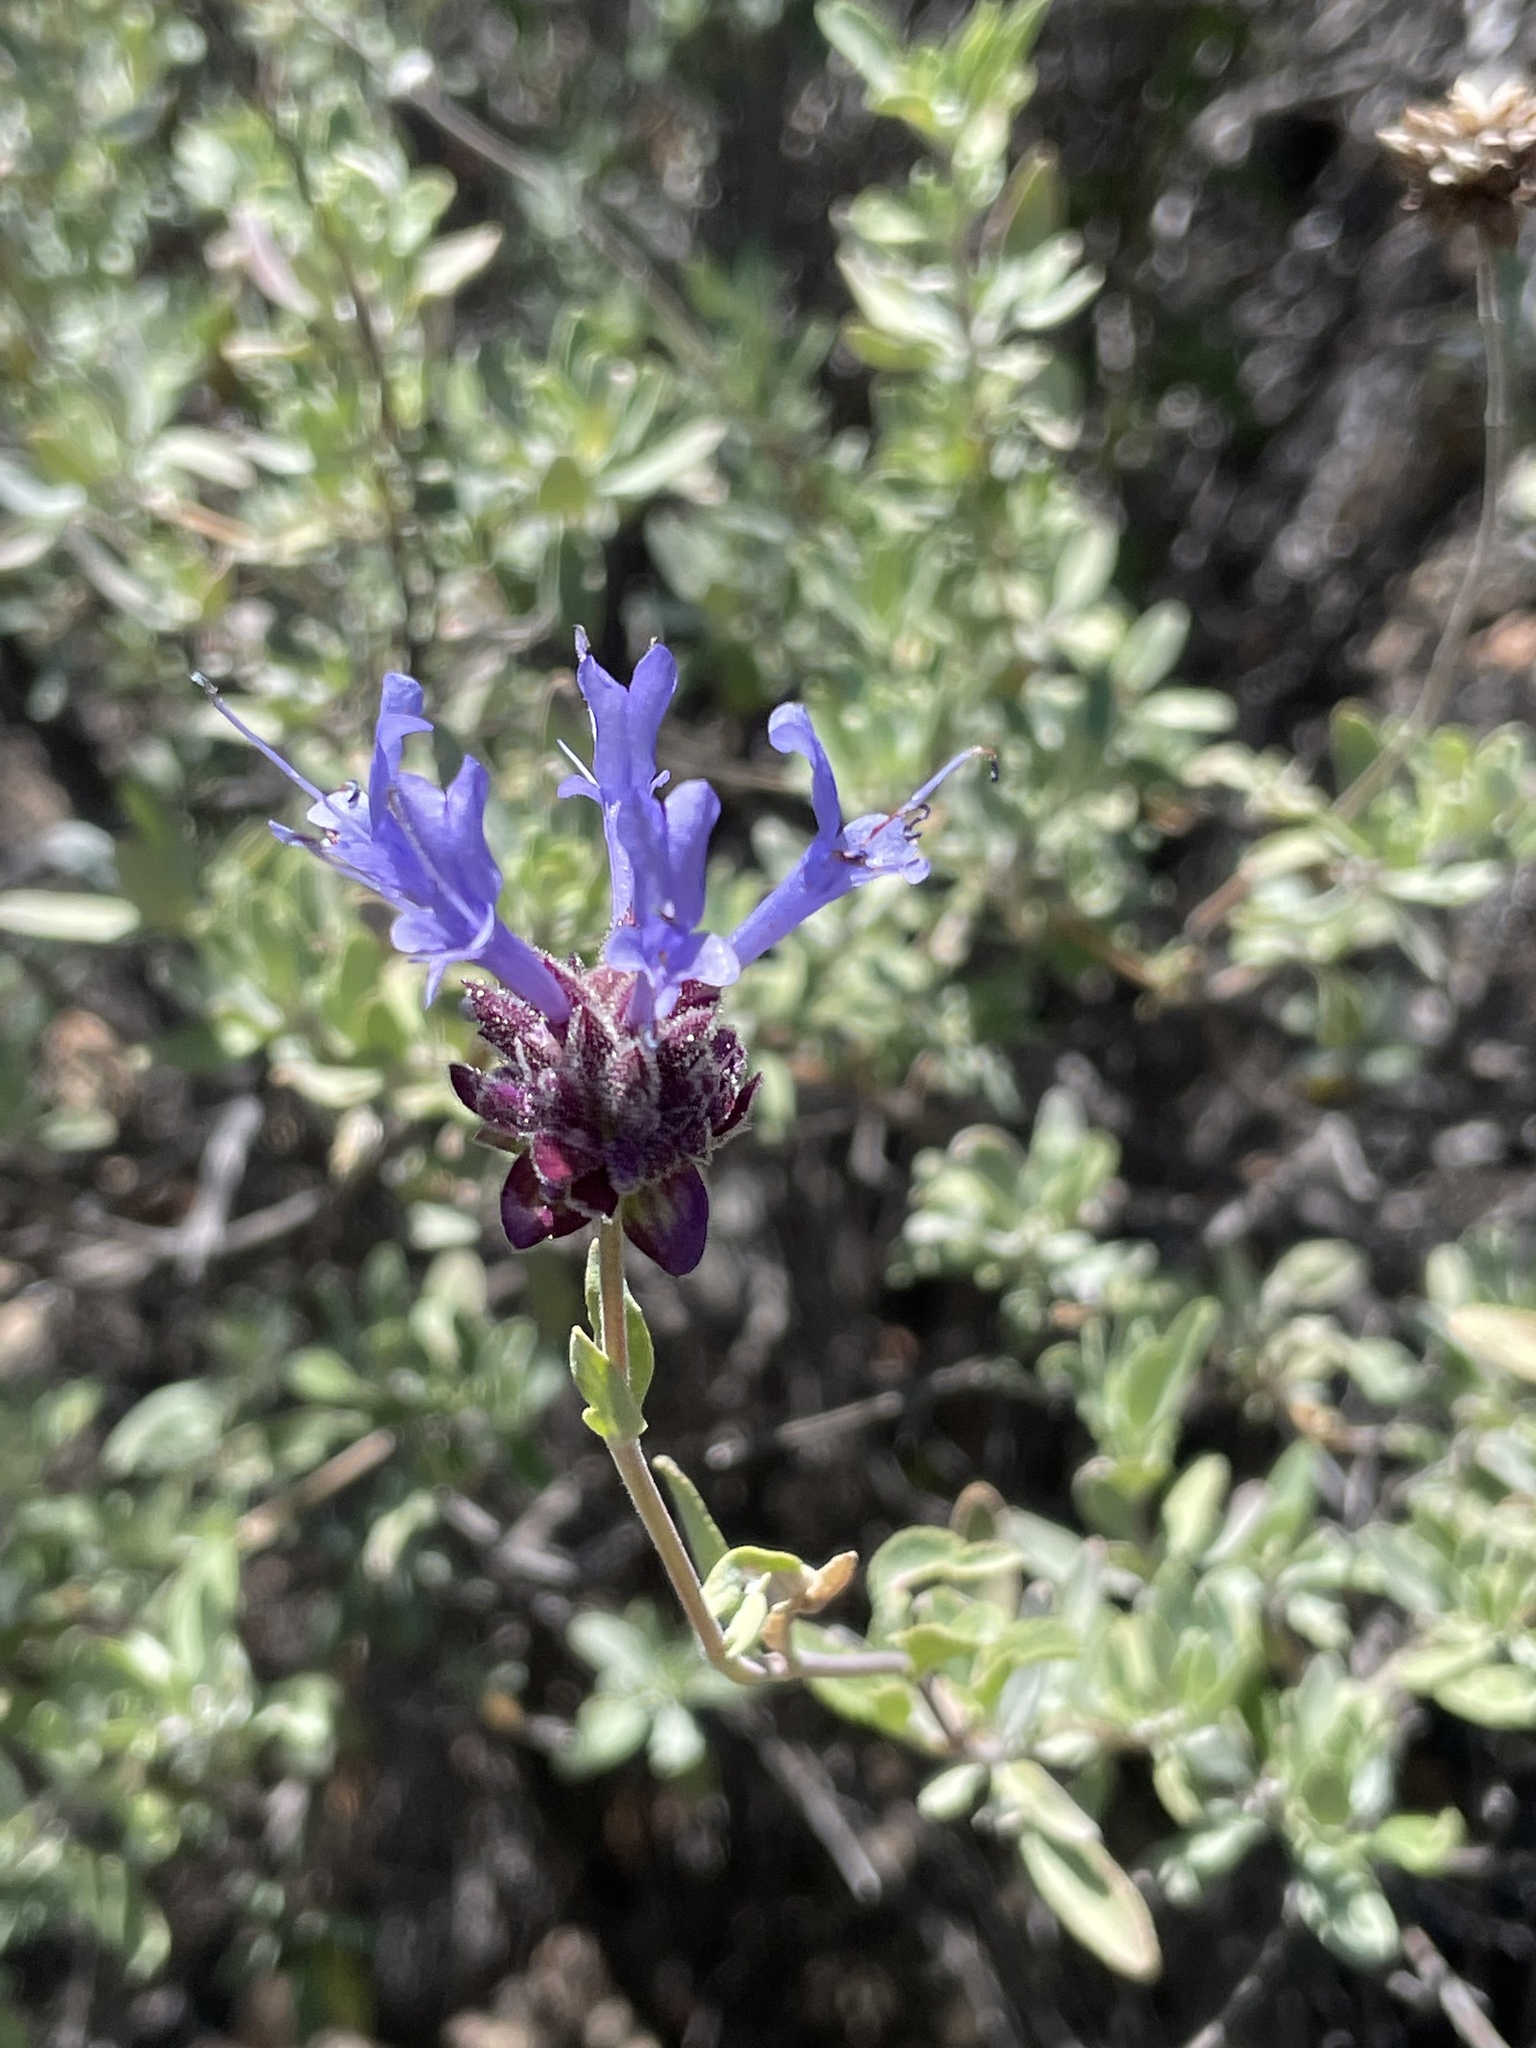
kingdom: Plantae
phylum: Tracheophyta
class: Magnoliopsida
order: Lamiales
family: Lamiaceae
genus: Salvia
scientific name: Salvia clevelandii
